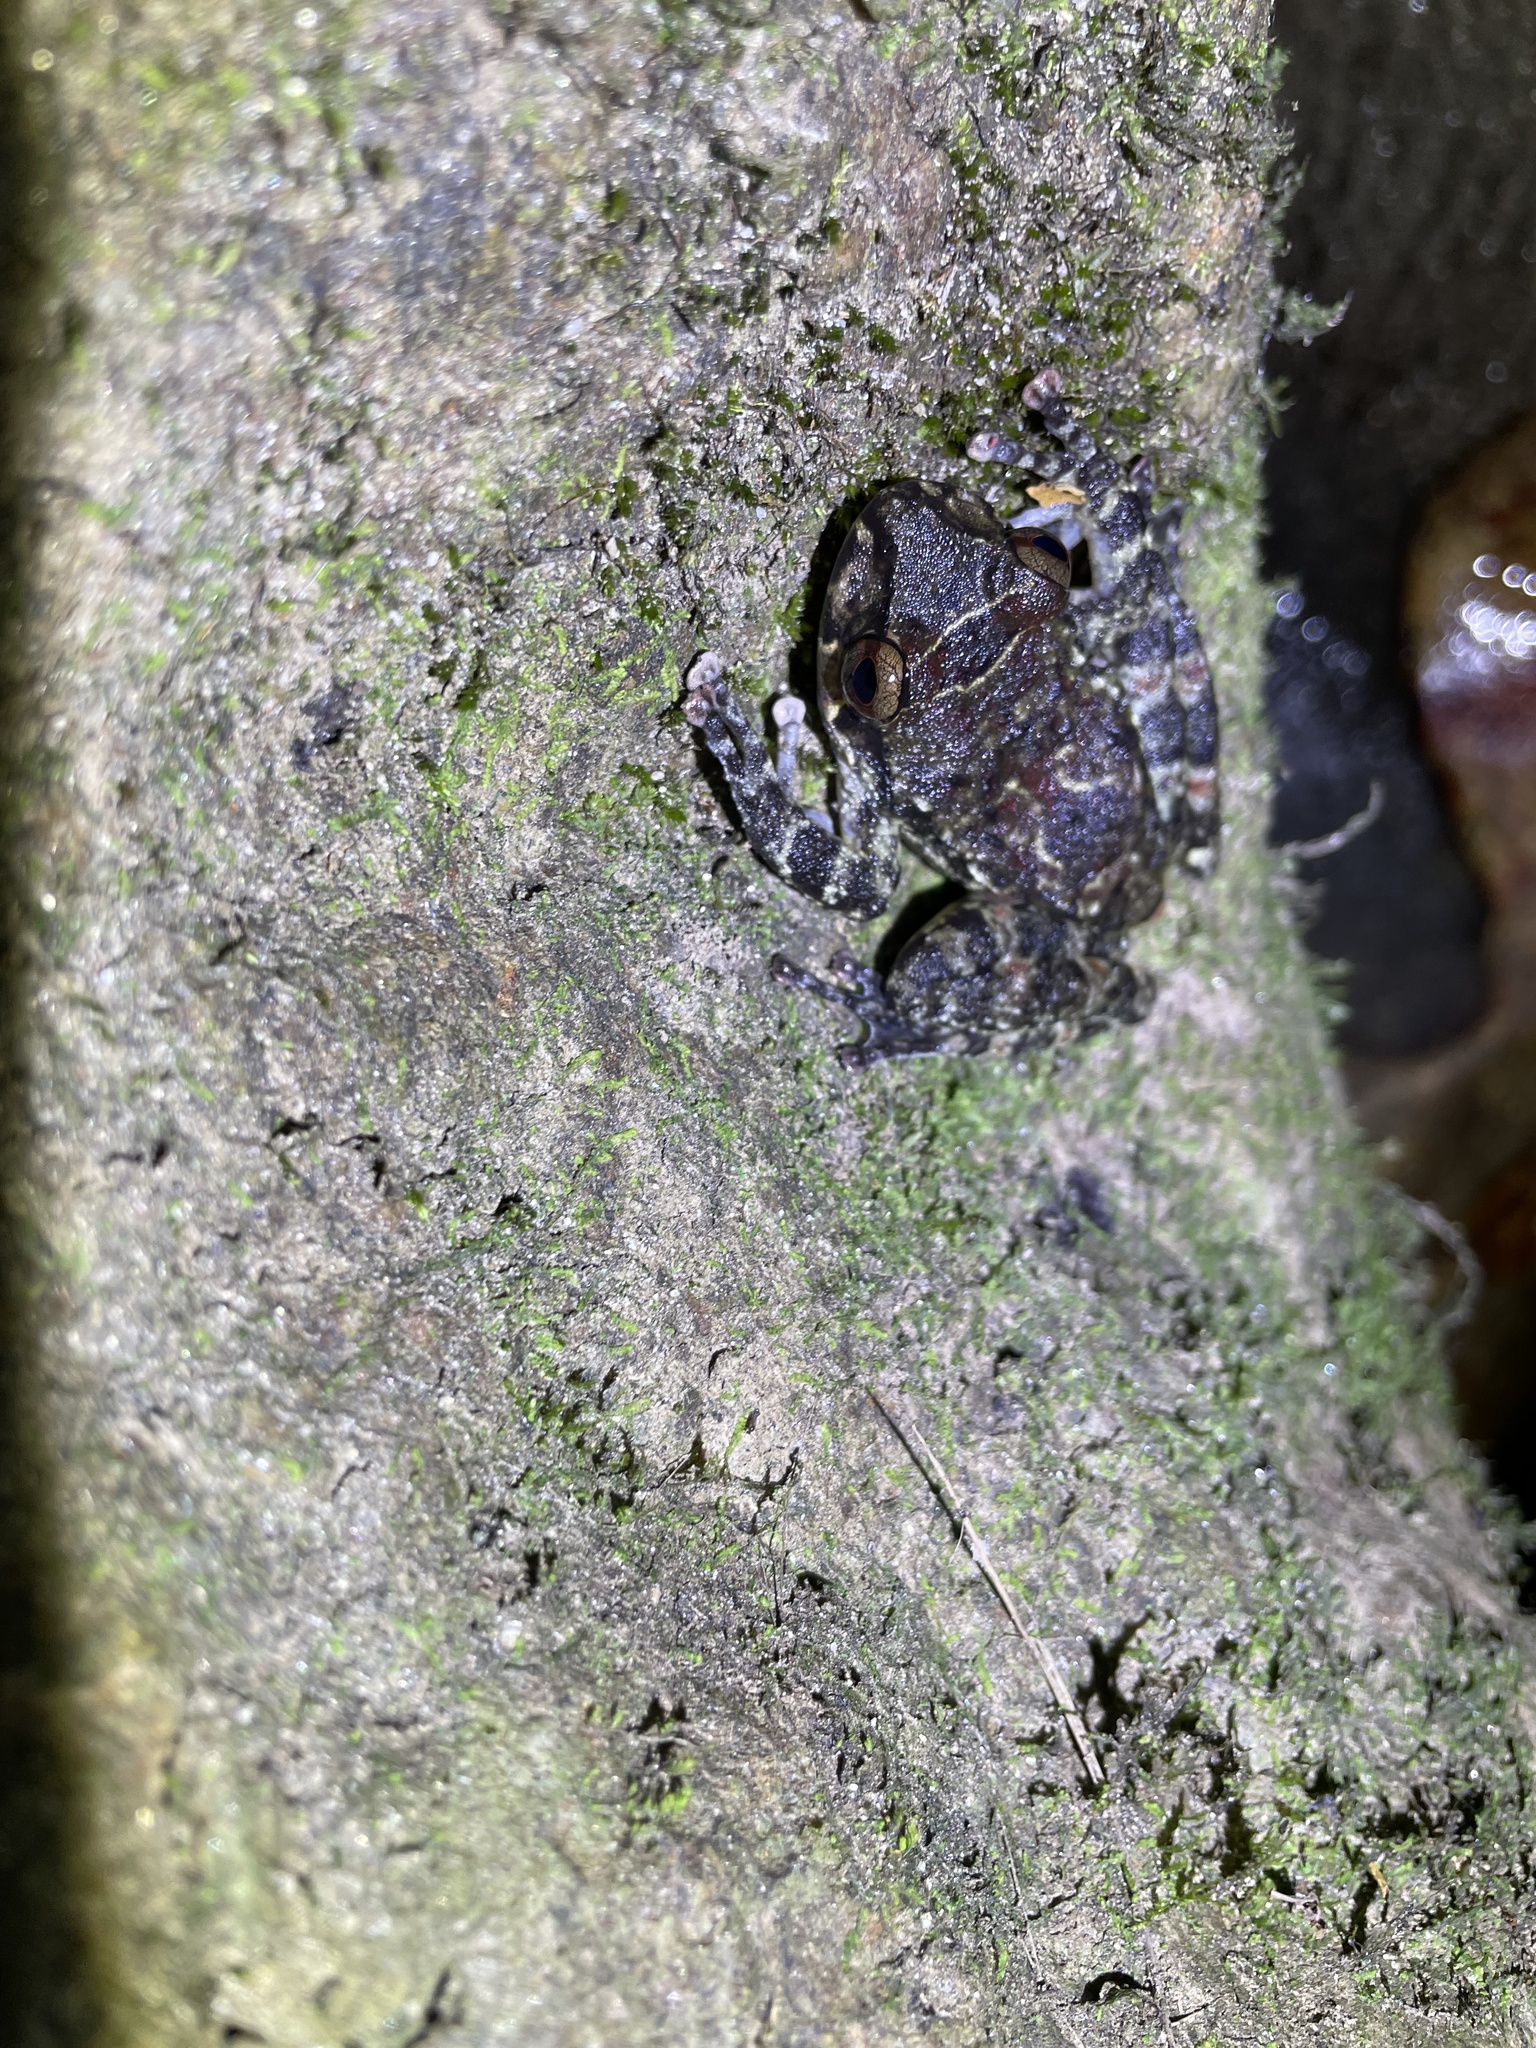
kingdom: Animalia
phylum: Chordata
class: Amphibia
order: Anura
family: Hemiphractidae
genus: Cryptobatrachus
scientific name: Cryptobatrachus boulengeri
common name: Boulenger's backpack frog
